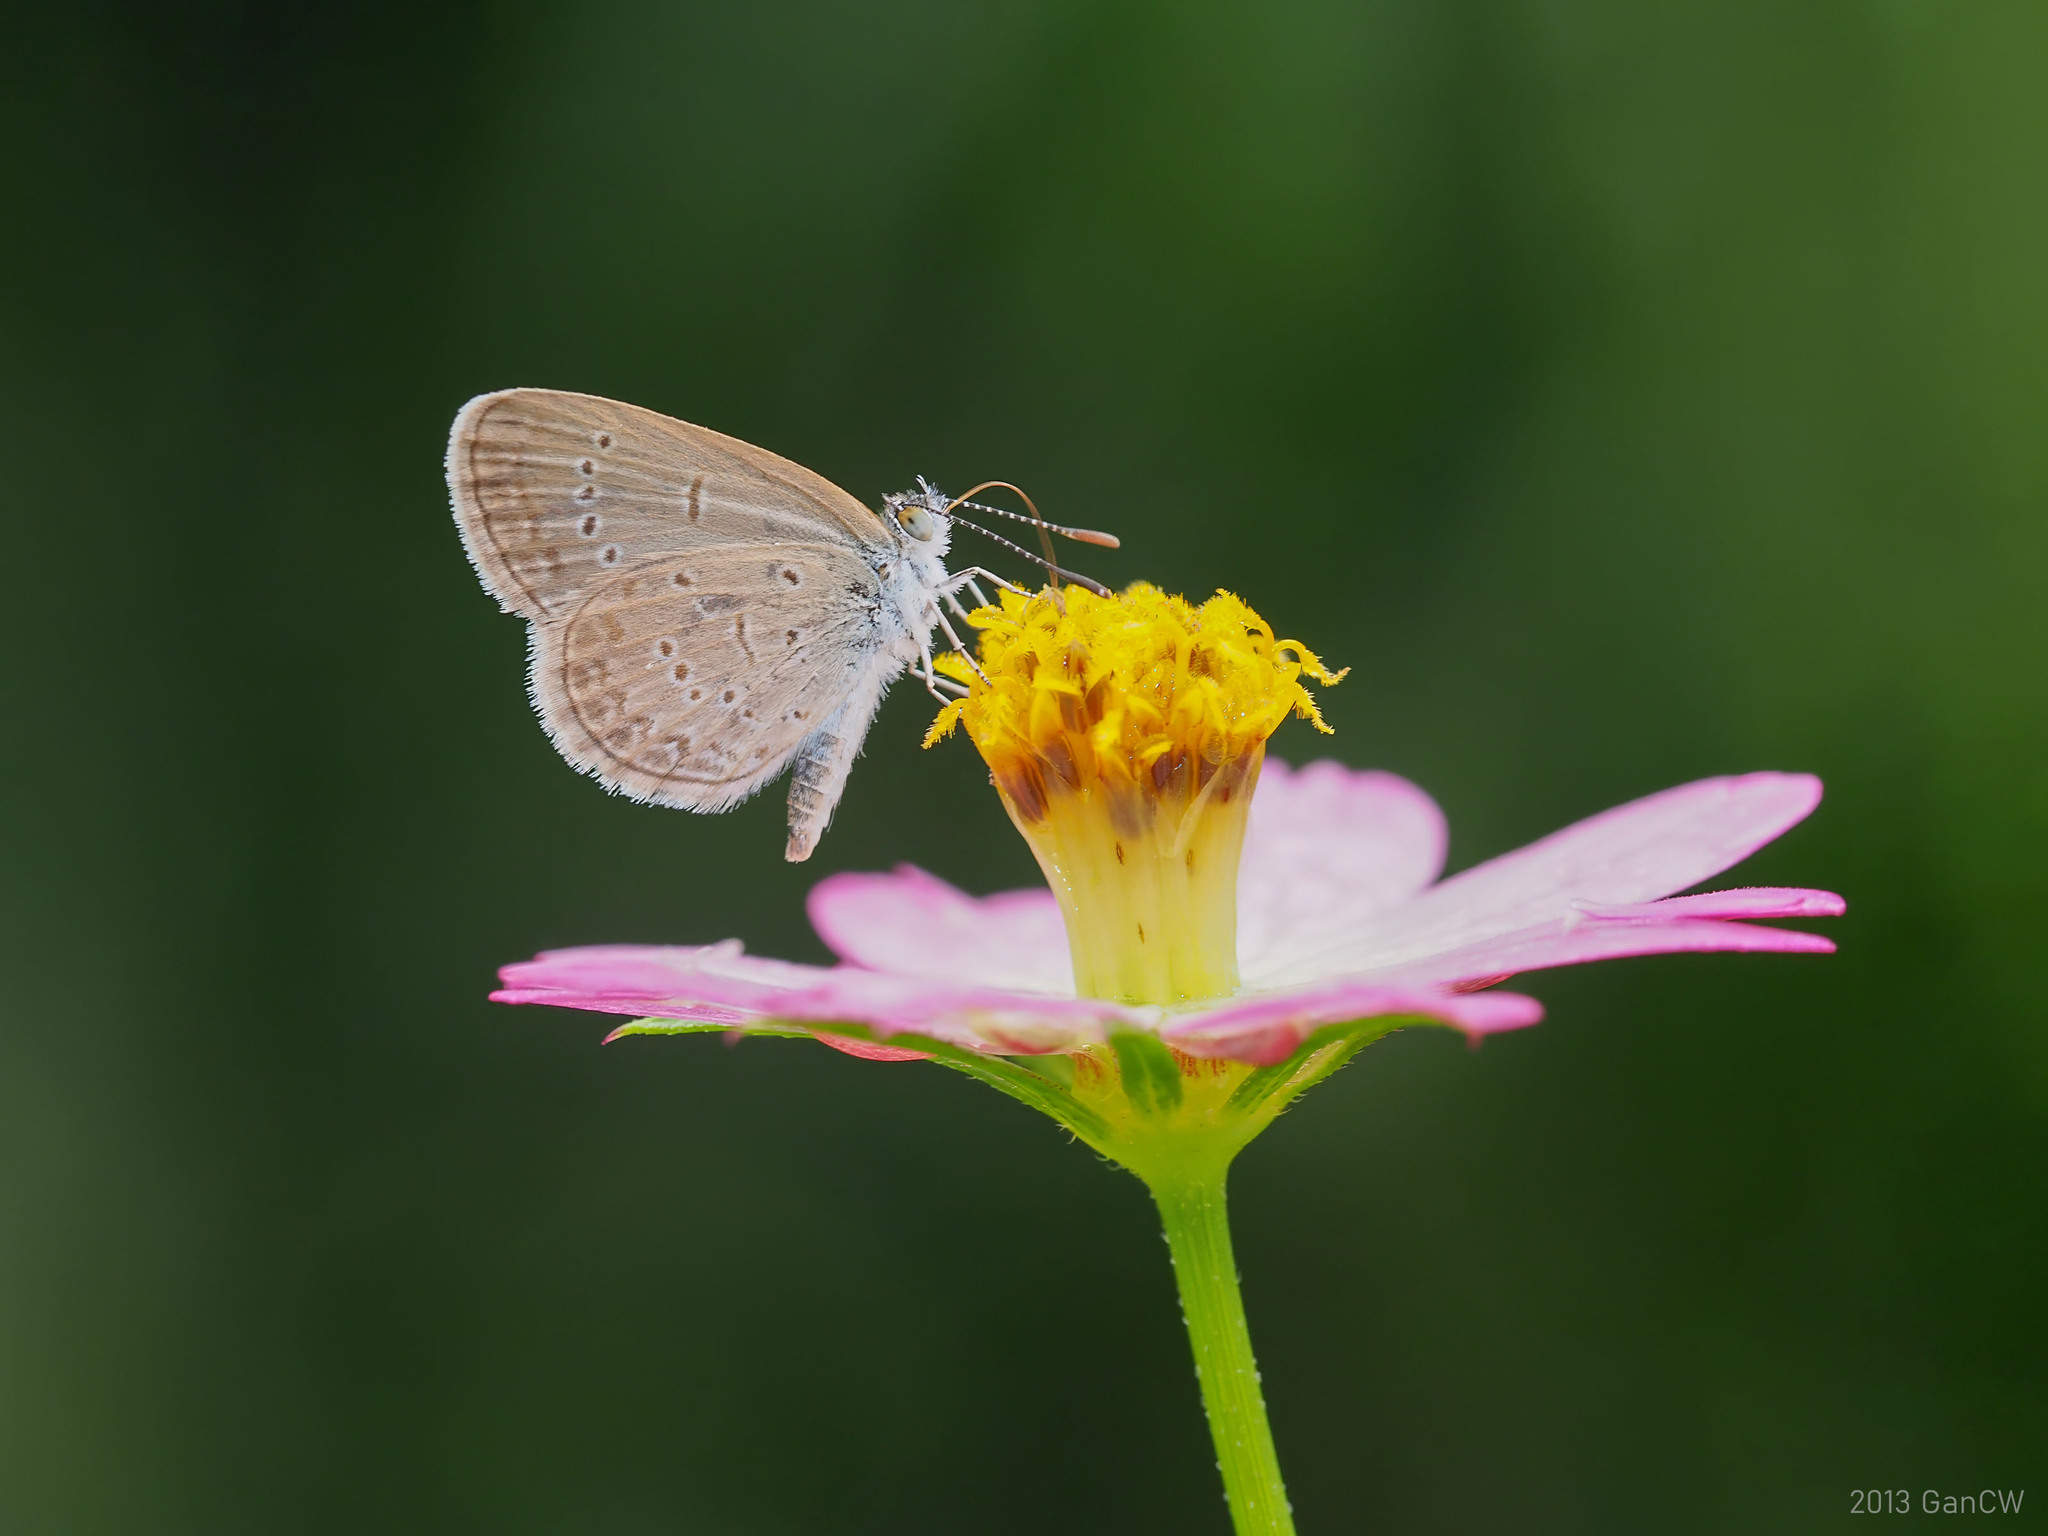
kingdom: Animalia
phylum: Arthropoda
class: Insecta
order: Lepidoptera
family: Lycaenidae
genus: Zizina
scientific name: Zizina otis
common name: Lesser grass blue
